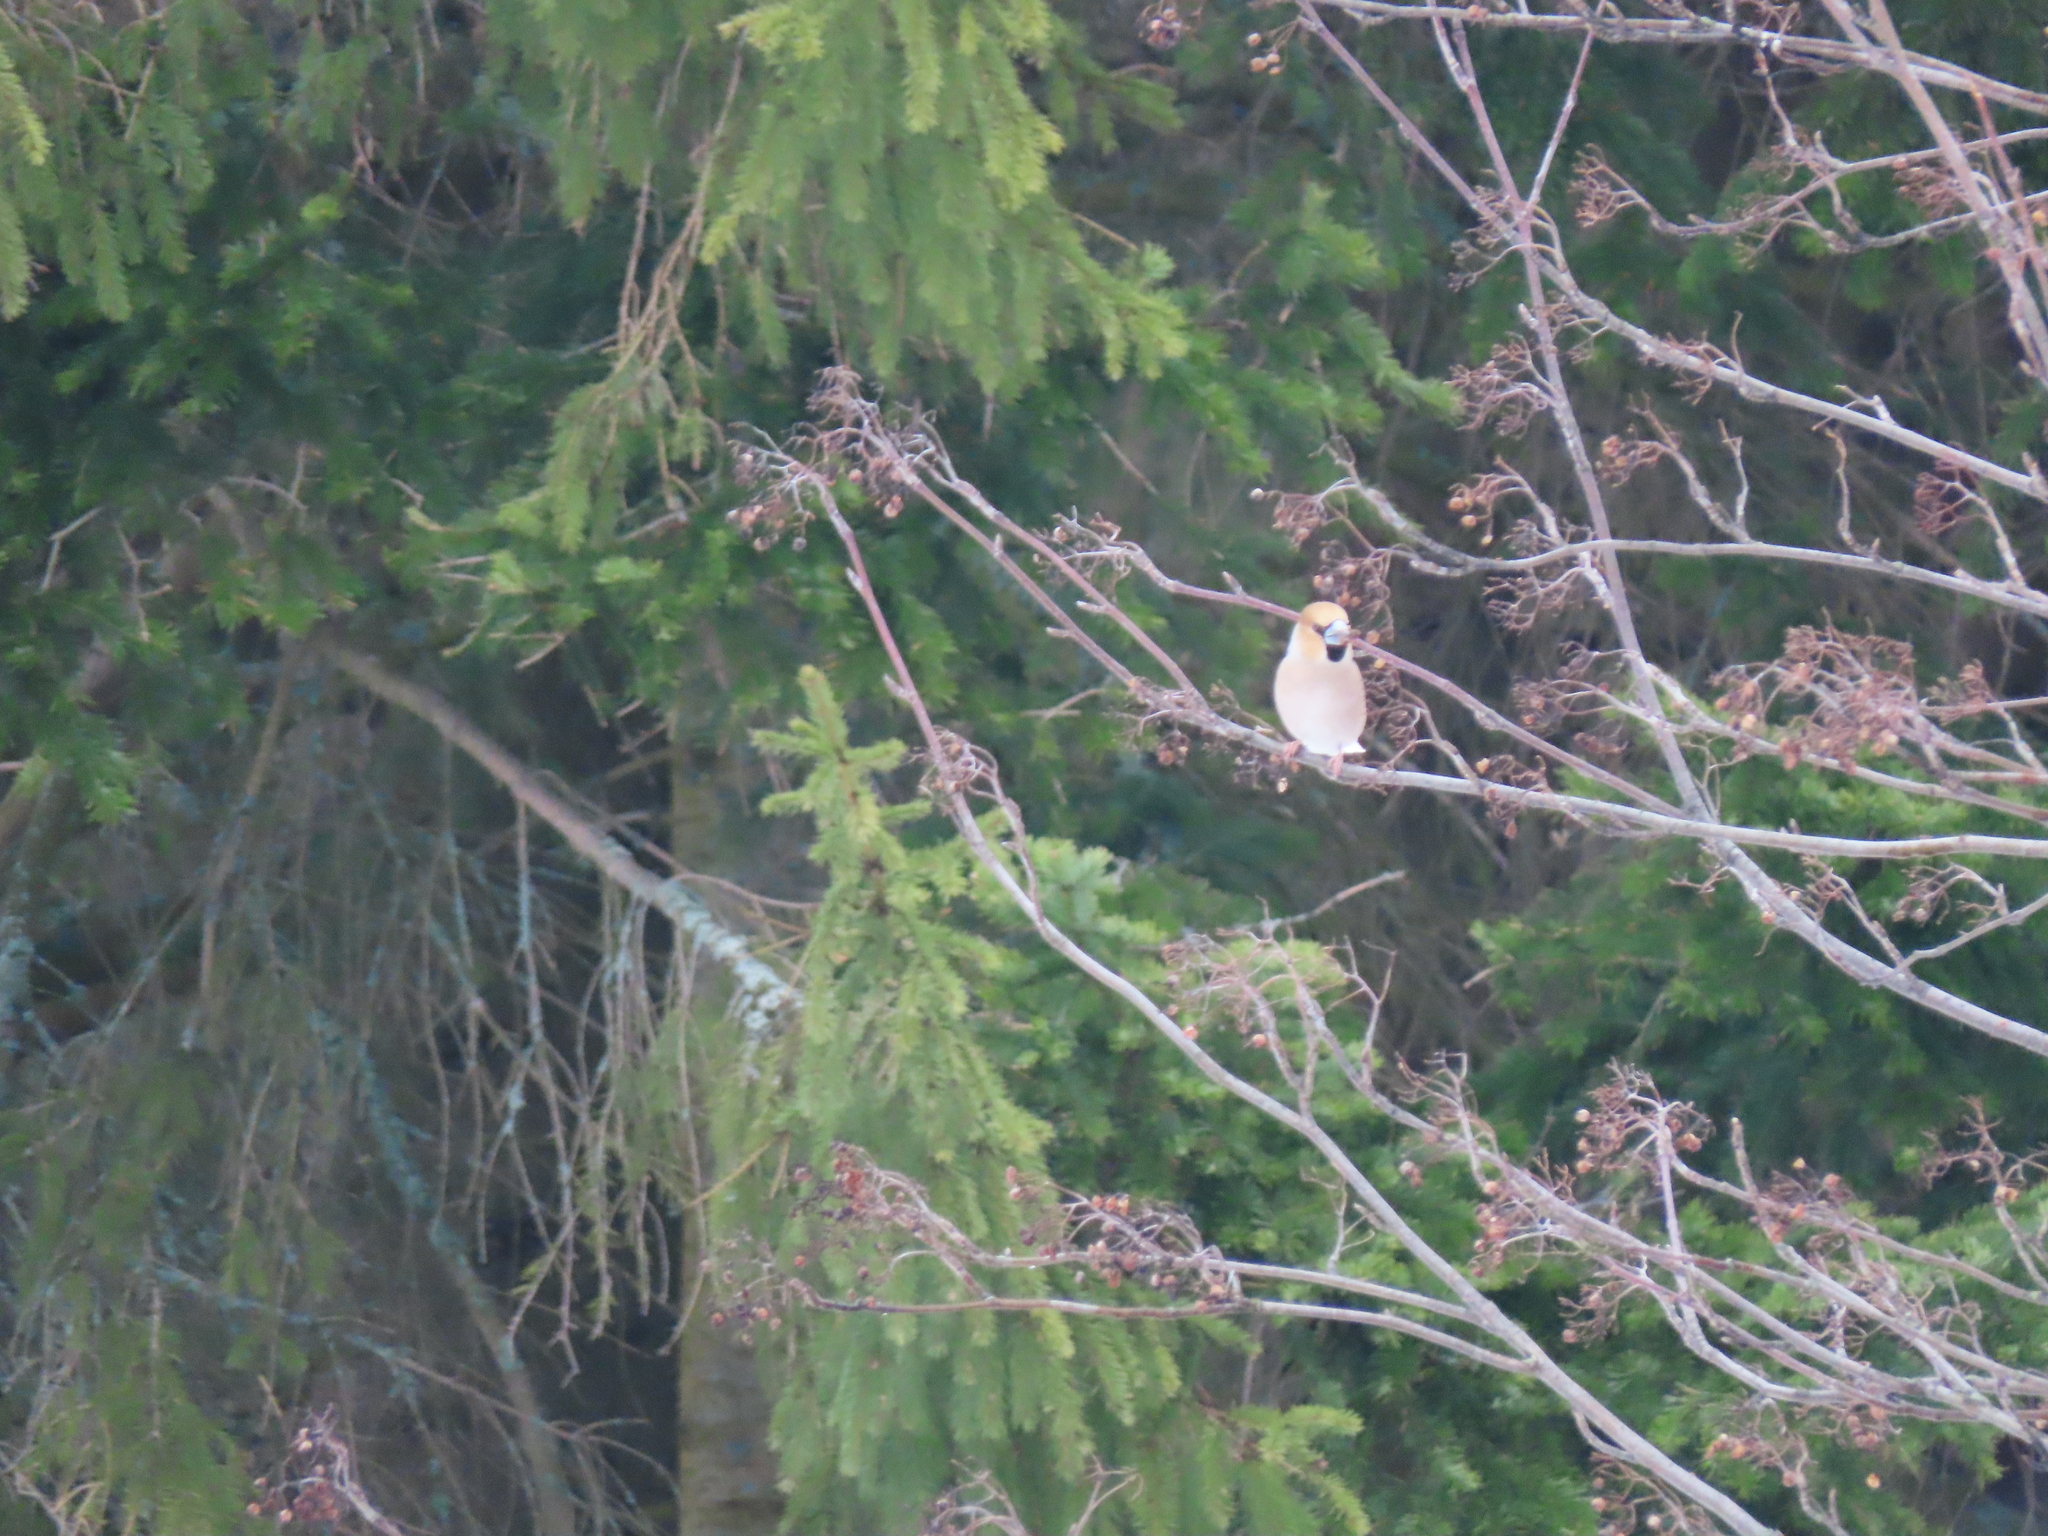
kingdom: Animalia
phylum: Chordata
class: Aves
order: Passeriformes
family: Fringillidae
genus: Coccothraustes
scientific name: Coccothraustes coccothraustes
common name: Hawfinch
